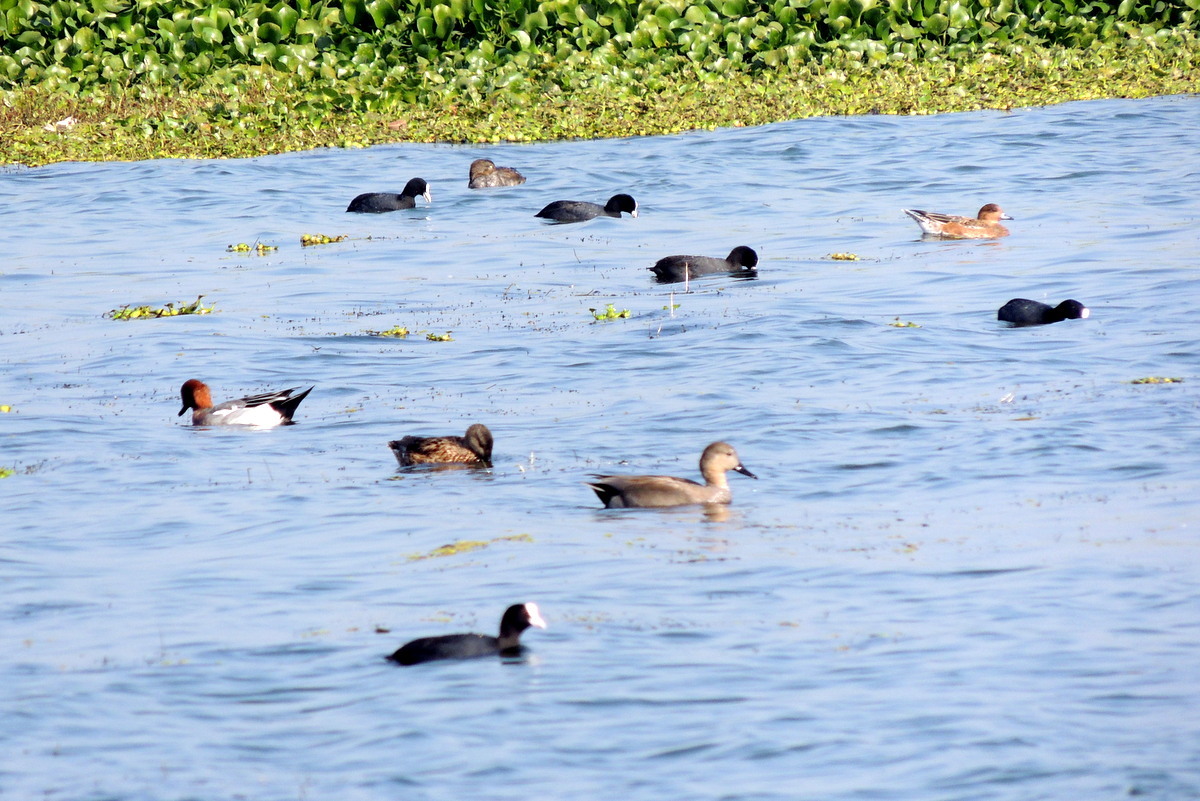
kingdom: Animalia
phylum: Chordata
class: Aves
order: Anseriformes
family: Anatidae
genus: Mareca
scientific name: Mareca penelope
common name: Eurasian wigeon
